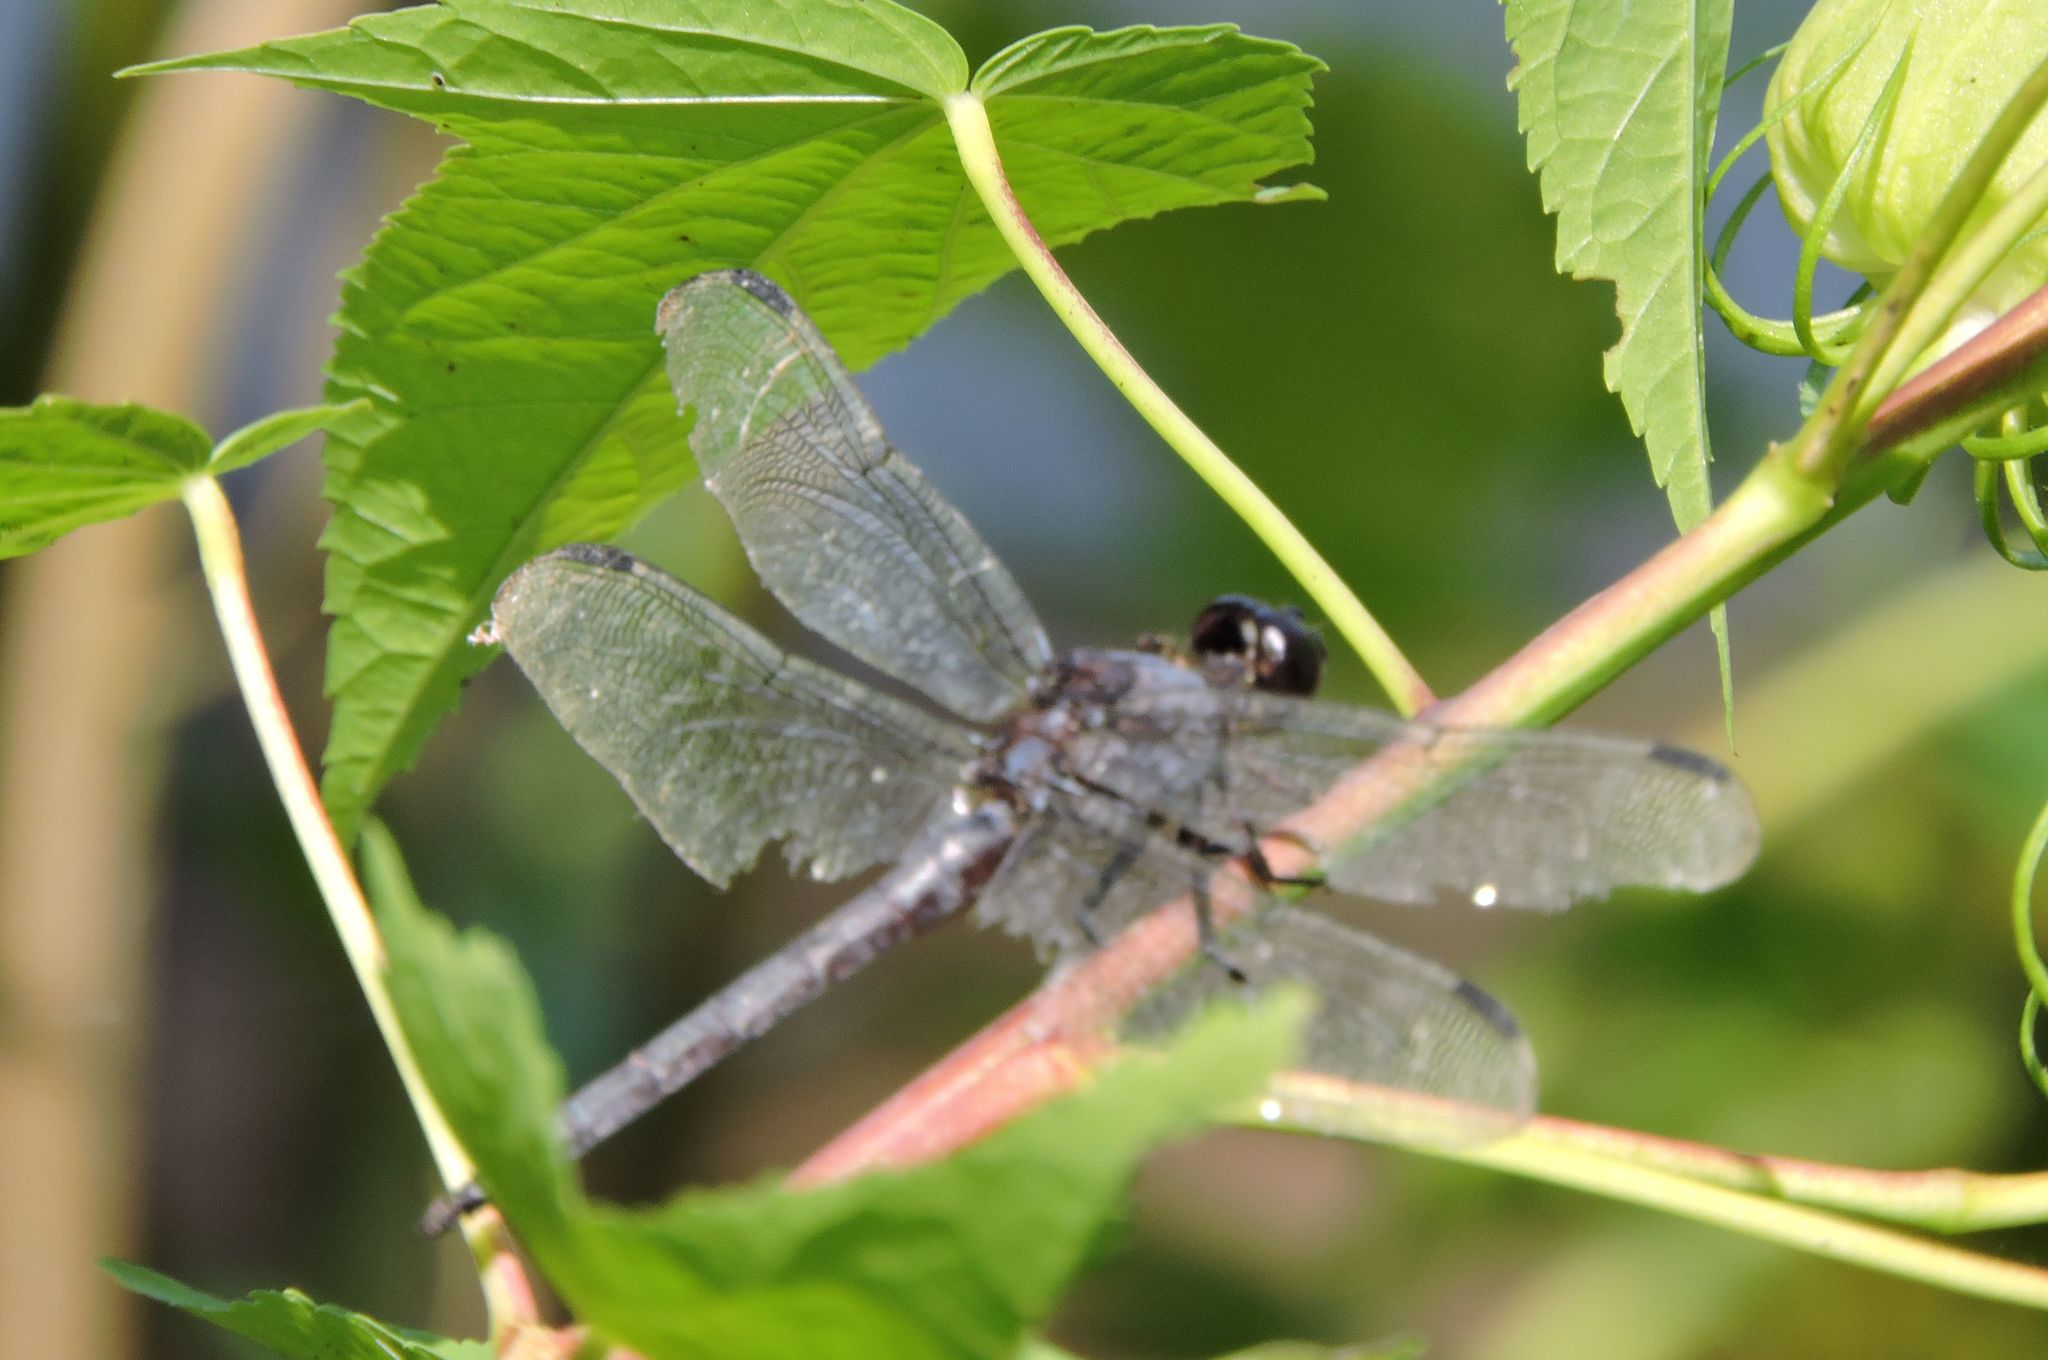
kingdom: Animalia
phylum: Arthropoda
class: Insecta
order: Odonata
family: Libellulidae
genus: Libellula
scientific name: Libellula incesta
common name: Slaty skimmer
